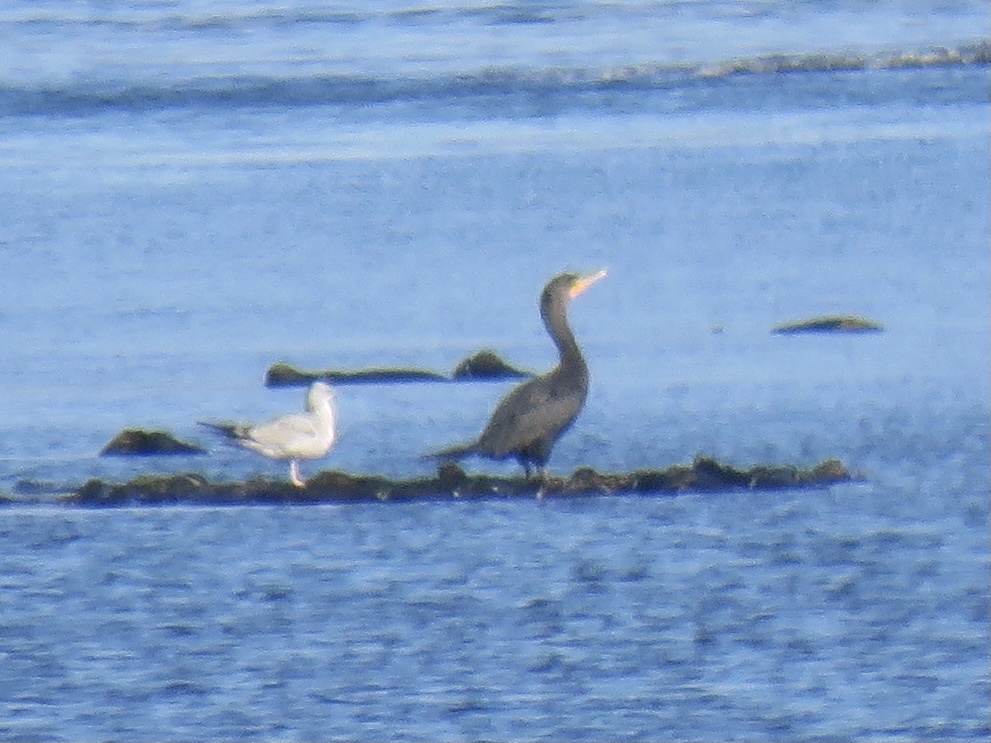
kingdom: Animalia
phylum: Chordata
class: Aves
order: Suliformes
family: Phalacrocoracidae
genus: Phalacrocorax
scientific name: Phalacrocorax auritus
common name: Double-crested cormorant
